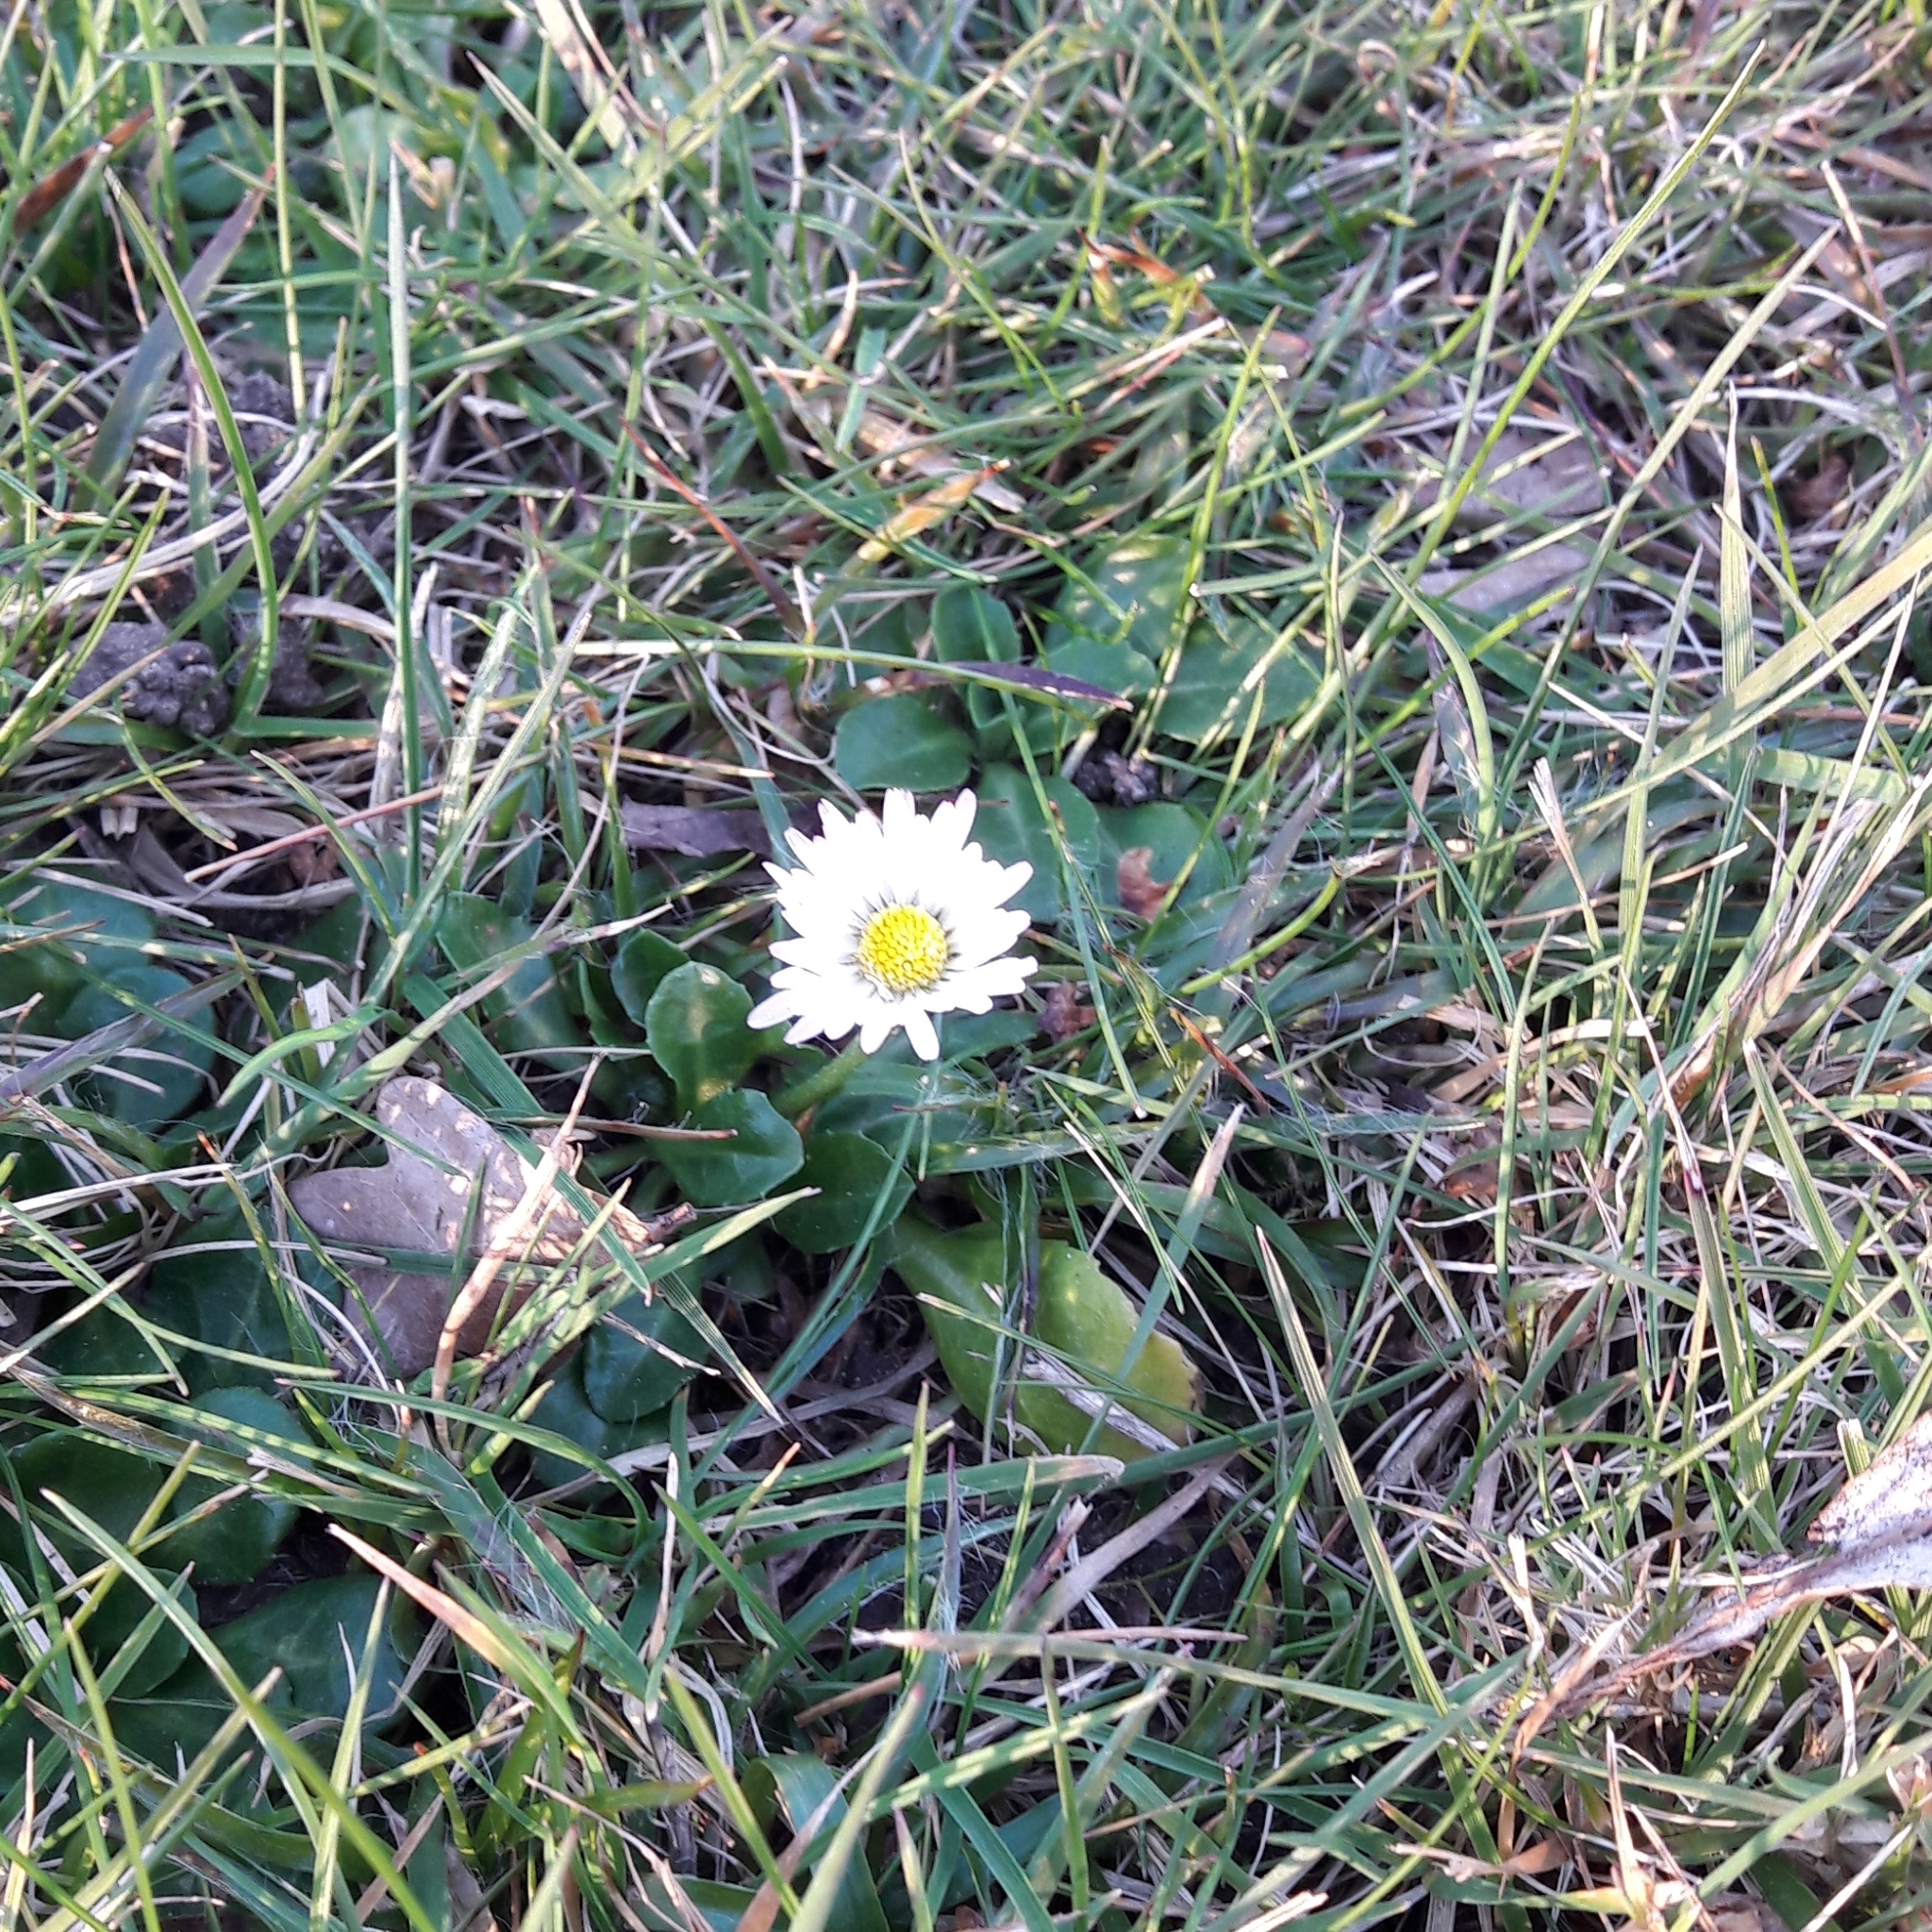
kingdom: Plantae
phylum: Tracheophyta
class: Magnoliopsida
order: Asterales
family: Asteraceae
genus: Bellis
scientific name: Bellis perennis
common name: Lawndaisy
